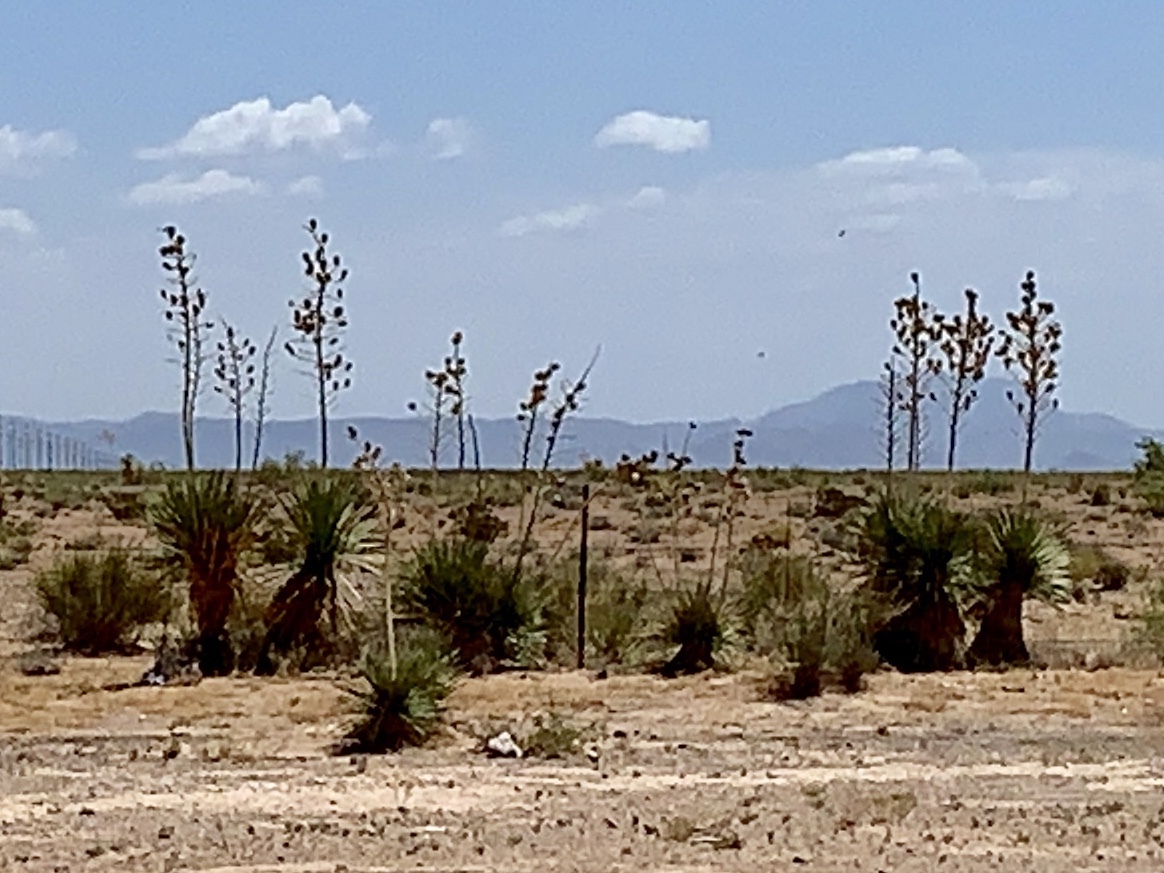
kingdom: Plantae
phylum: Tracheophyta
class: Liliopsida
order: Asparagales
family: Asparagaceae
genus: Yucca
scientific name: Yucca elata
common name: Palmella
